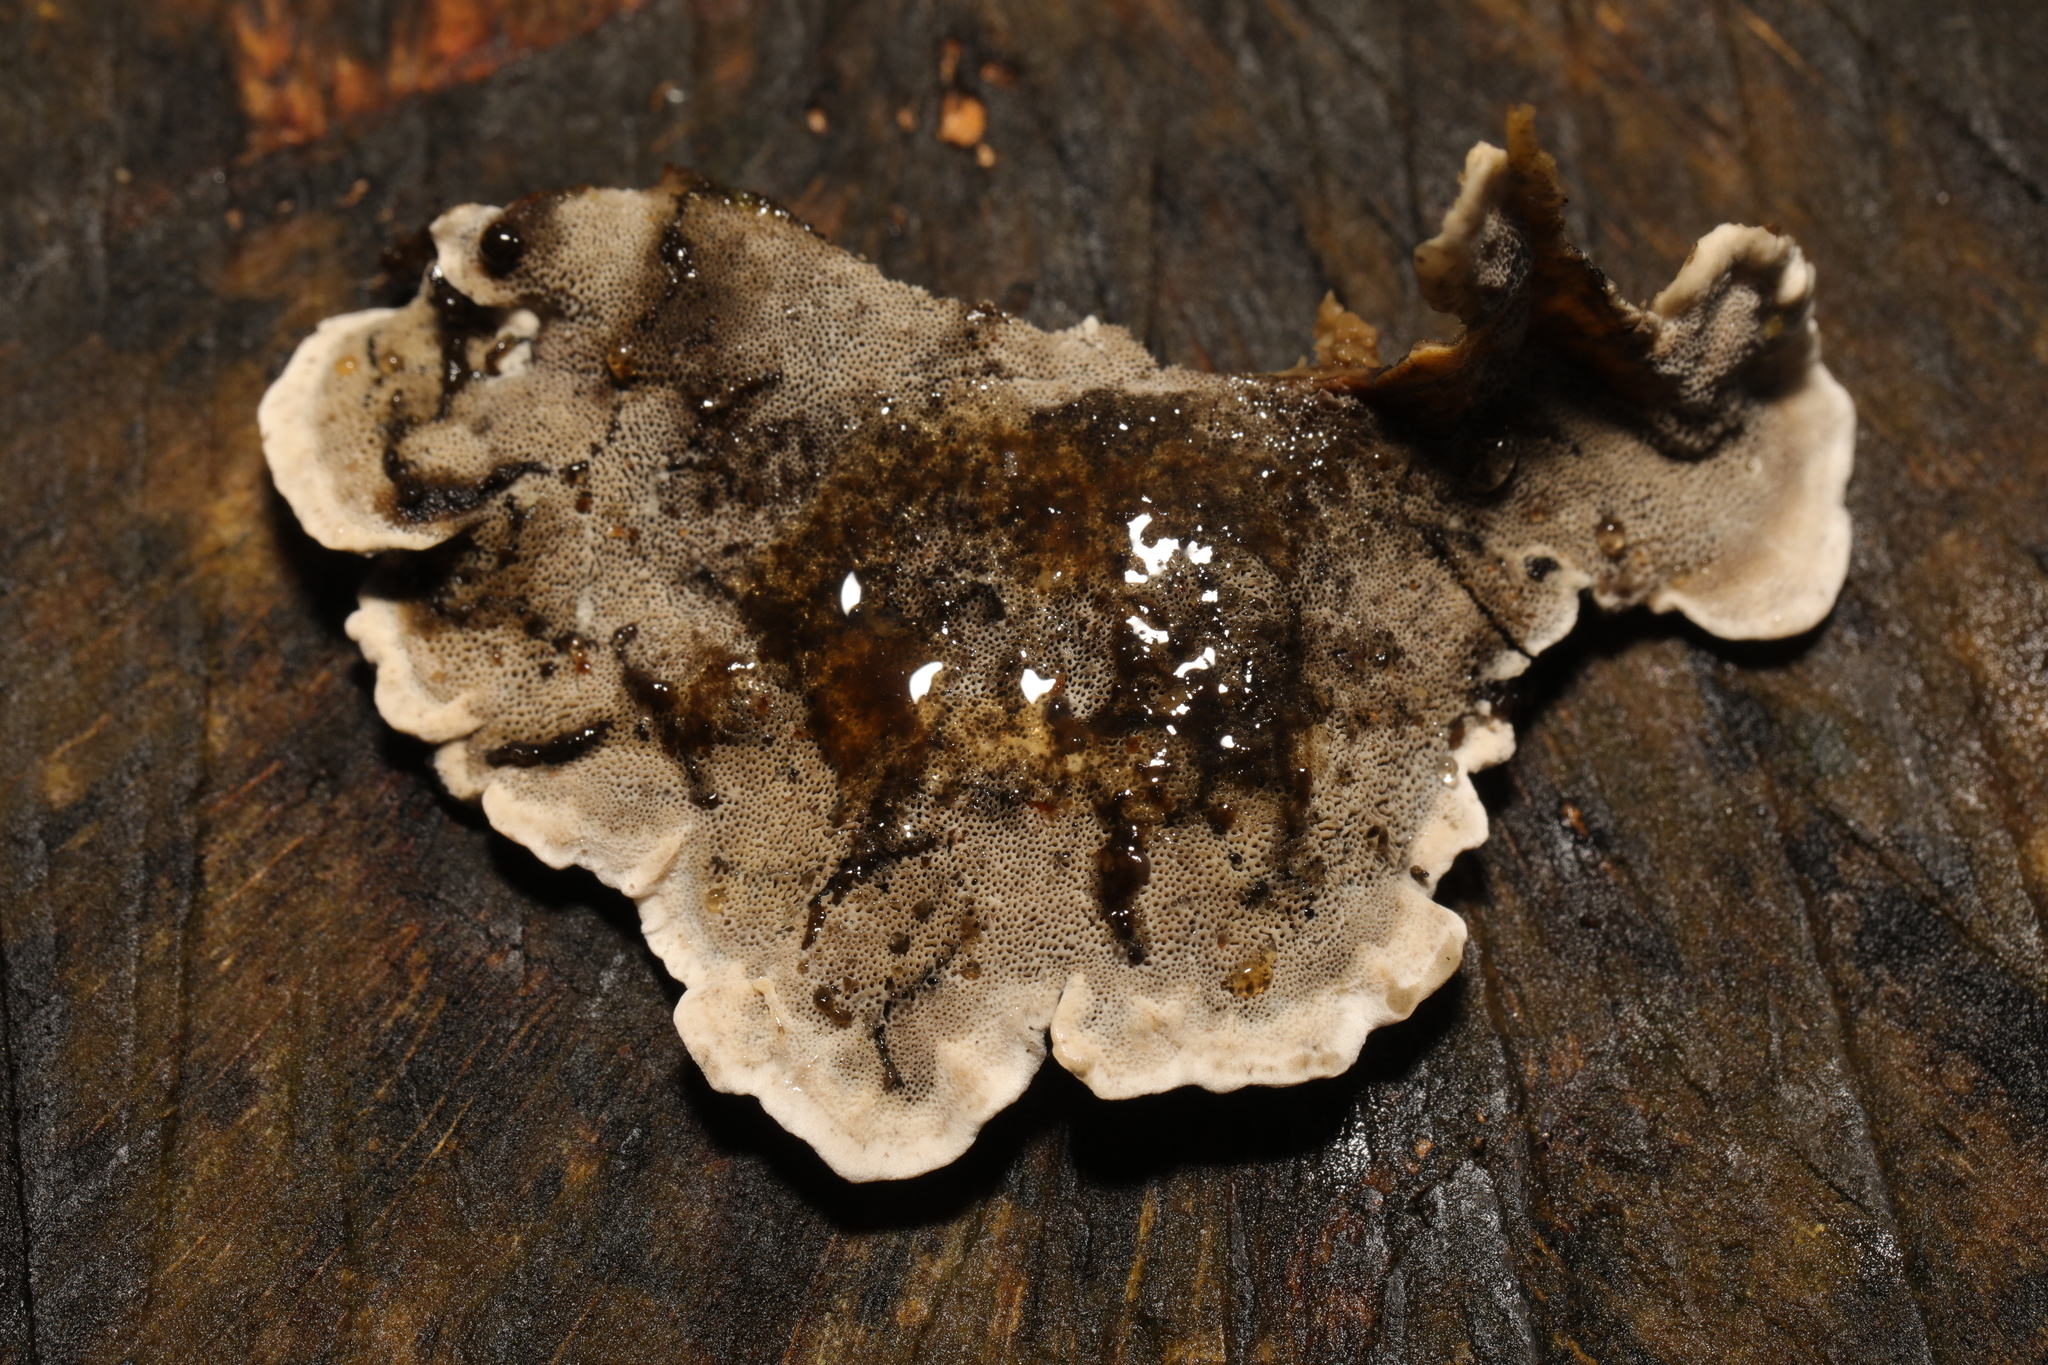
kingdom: Fungi
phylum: Basidiomycota
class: Agaricomycetes
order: Polyporales
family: Phanerochaetaceae
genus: Bjerkandera
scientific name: Bjerkandera adusta
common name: Smoky bracket
